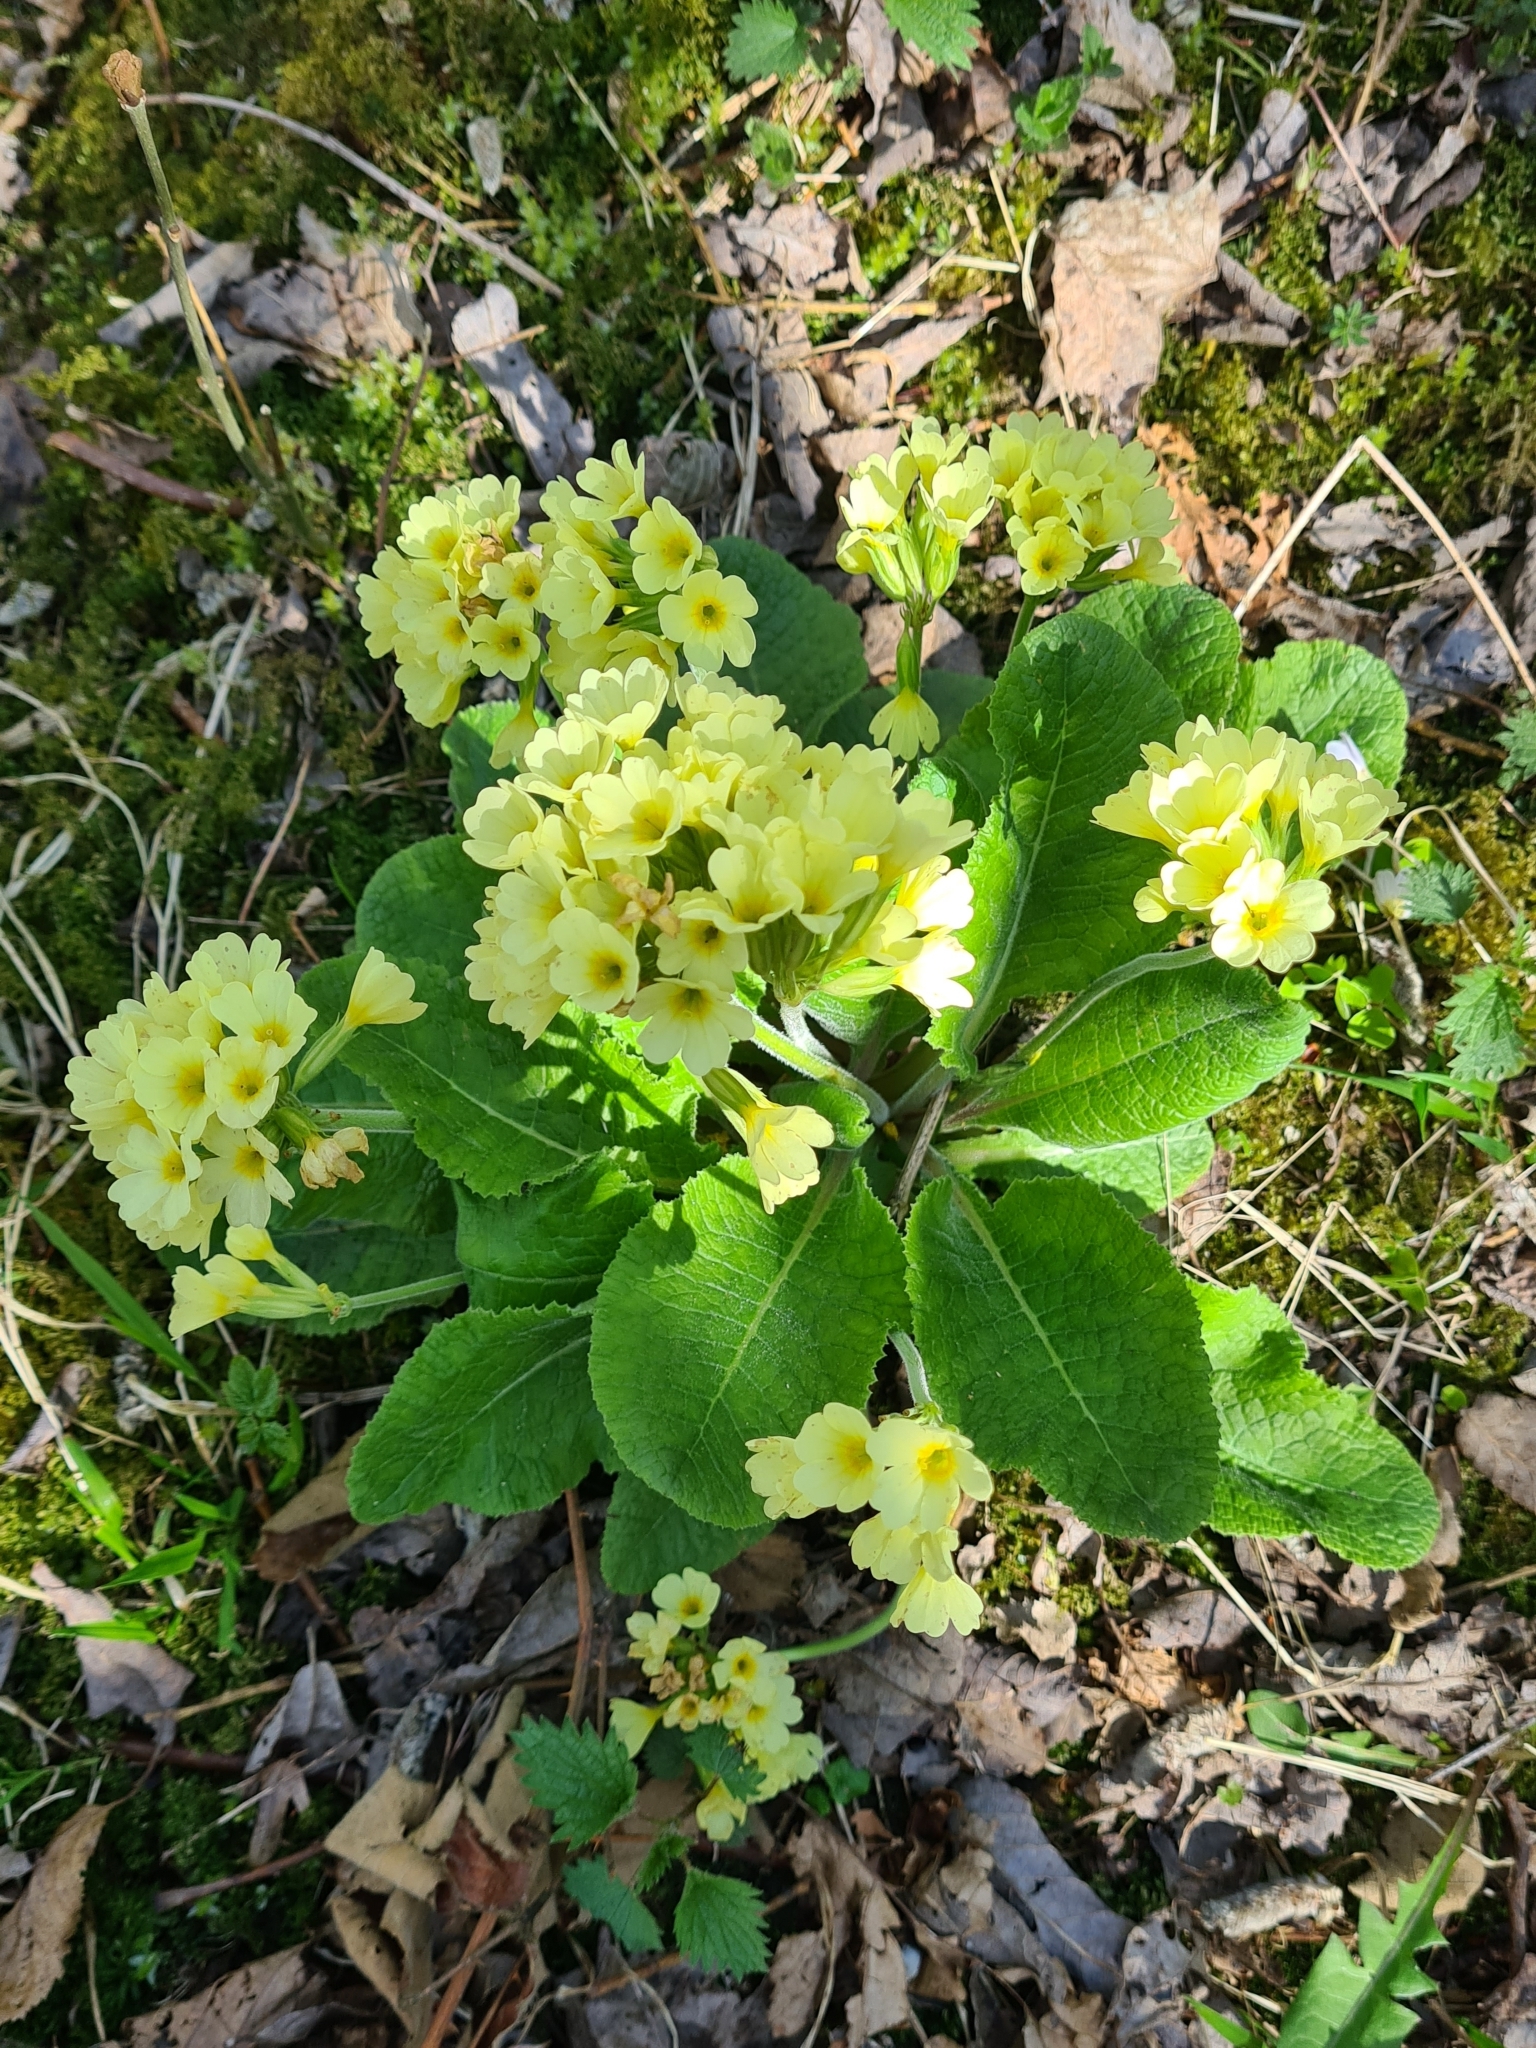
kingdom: Plantae
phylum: Tracheophyta
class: Magnoliopsida
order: Ericales
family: Primulaceae
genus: Primula
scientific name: Primula elatior
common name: Oxlip
